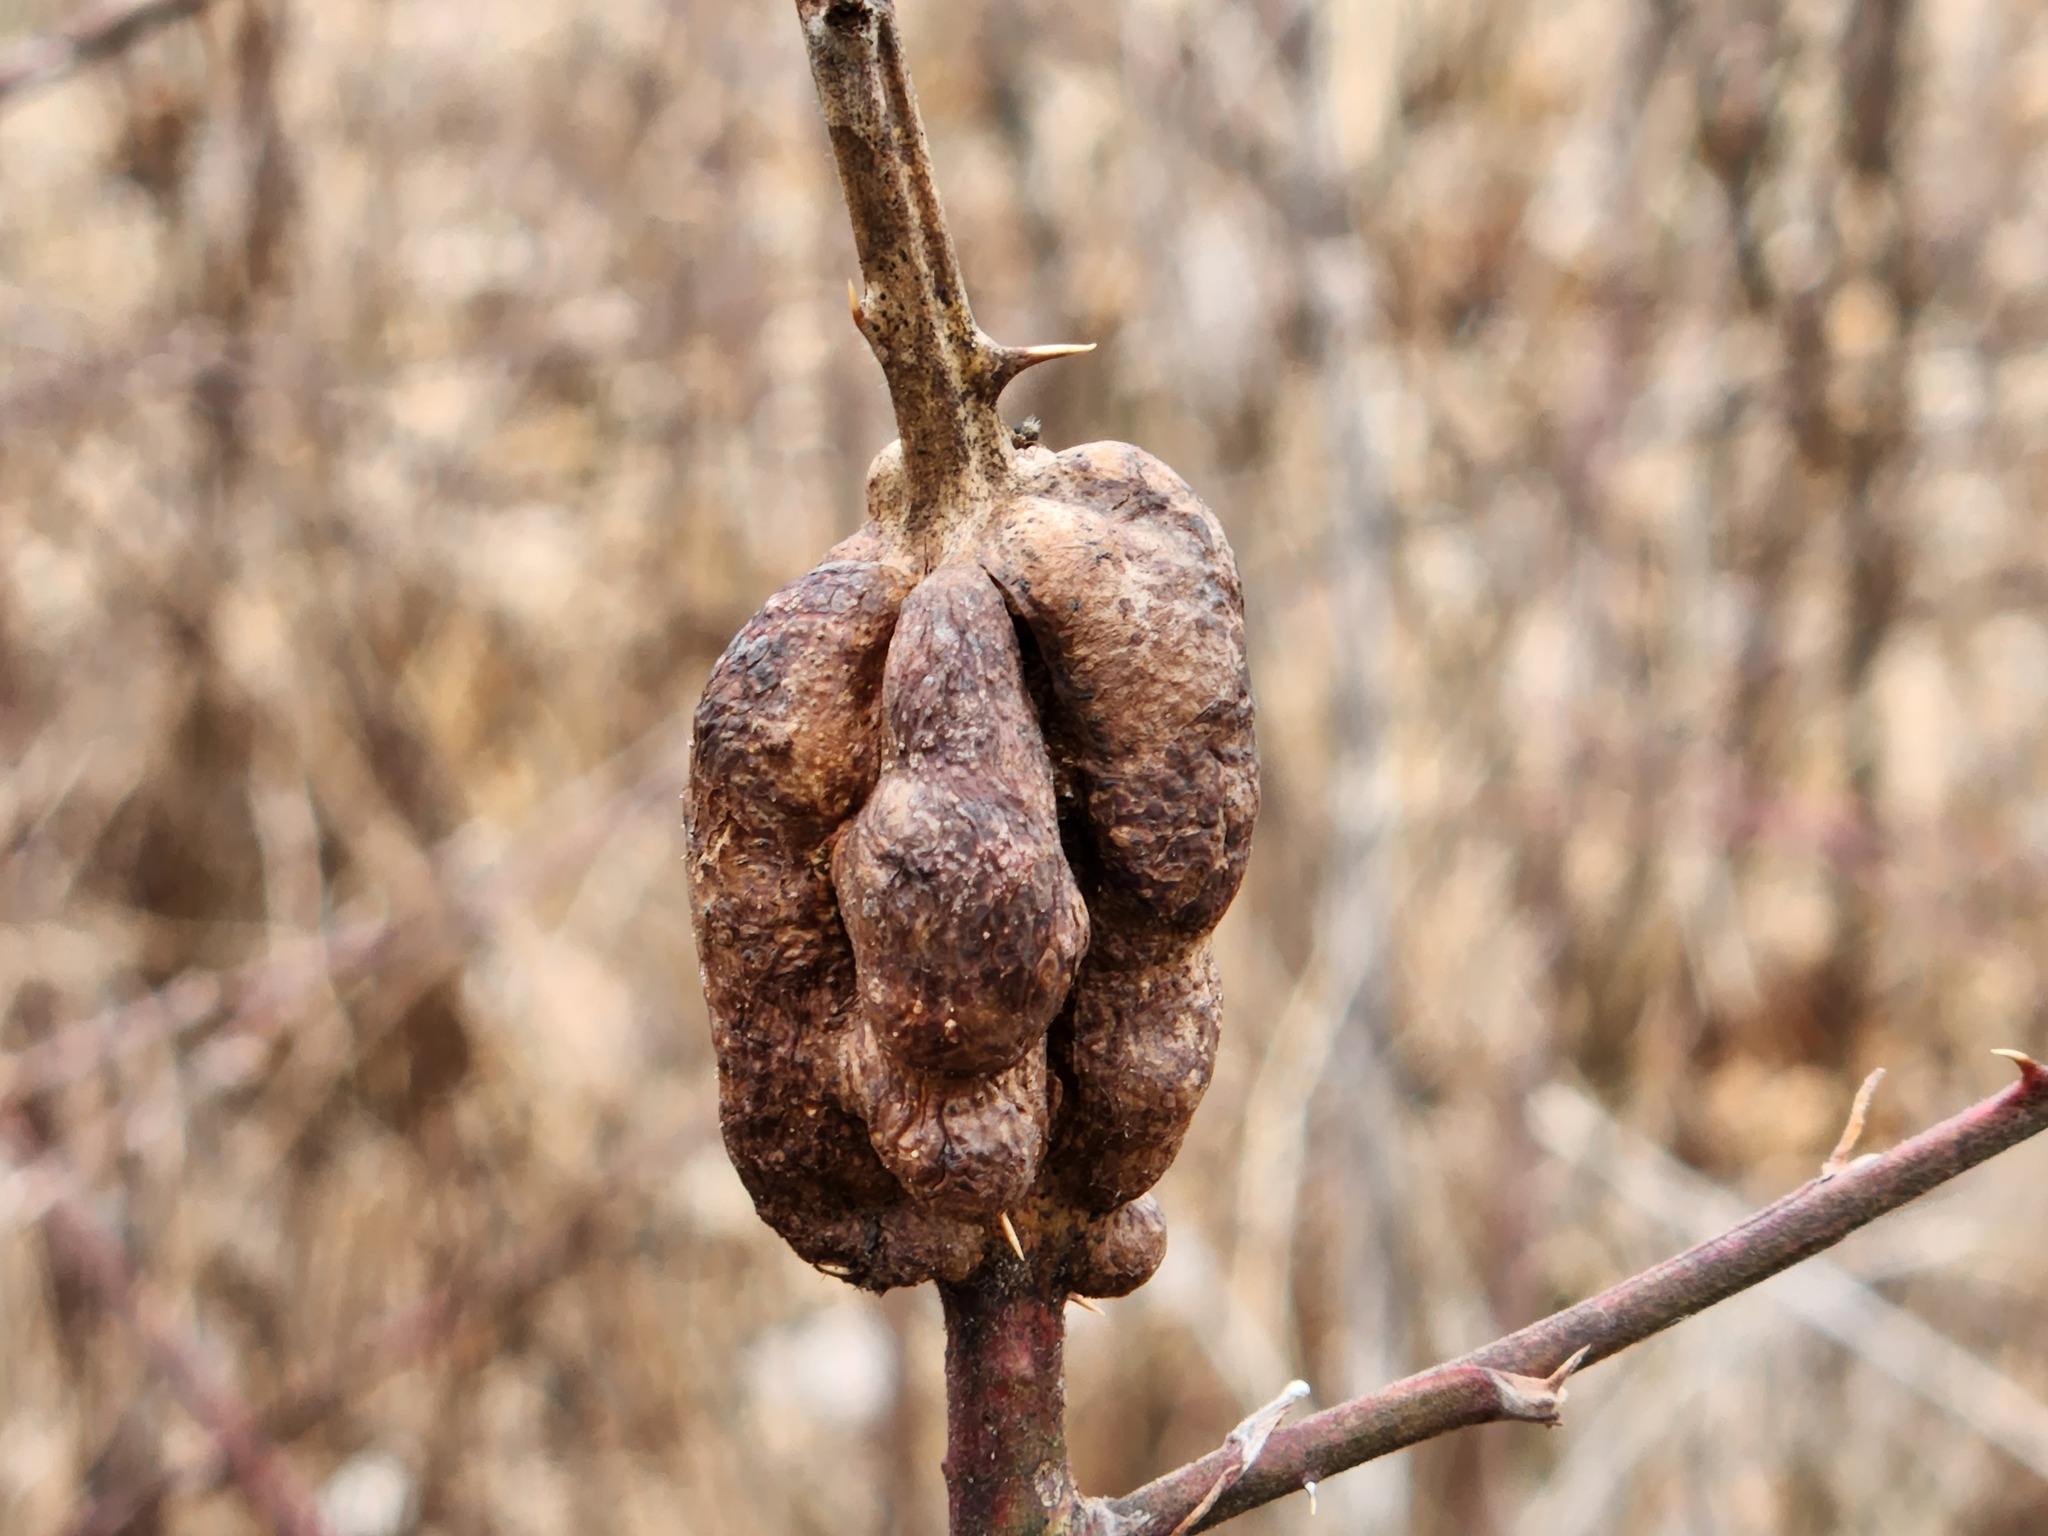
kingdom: Animalia
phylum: Arthropoda
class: Insecta
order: Hymenoptera
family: Cynipidae
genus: Diastrophus
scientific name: Diastrophus
